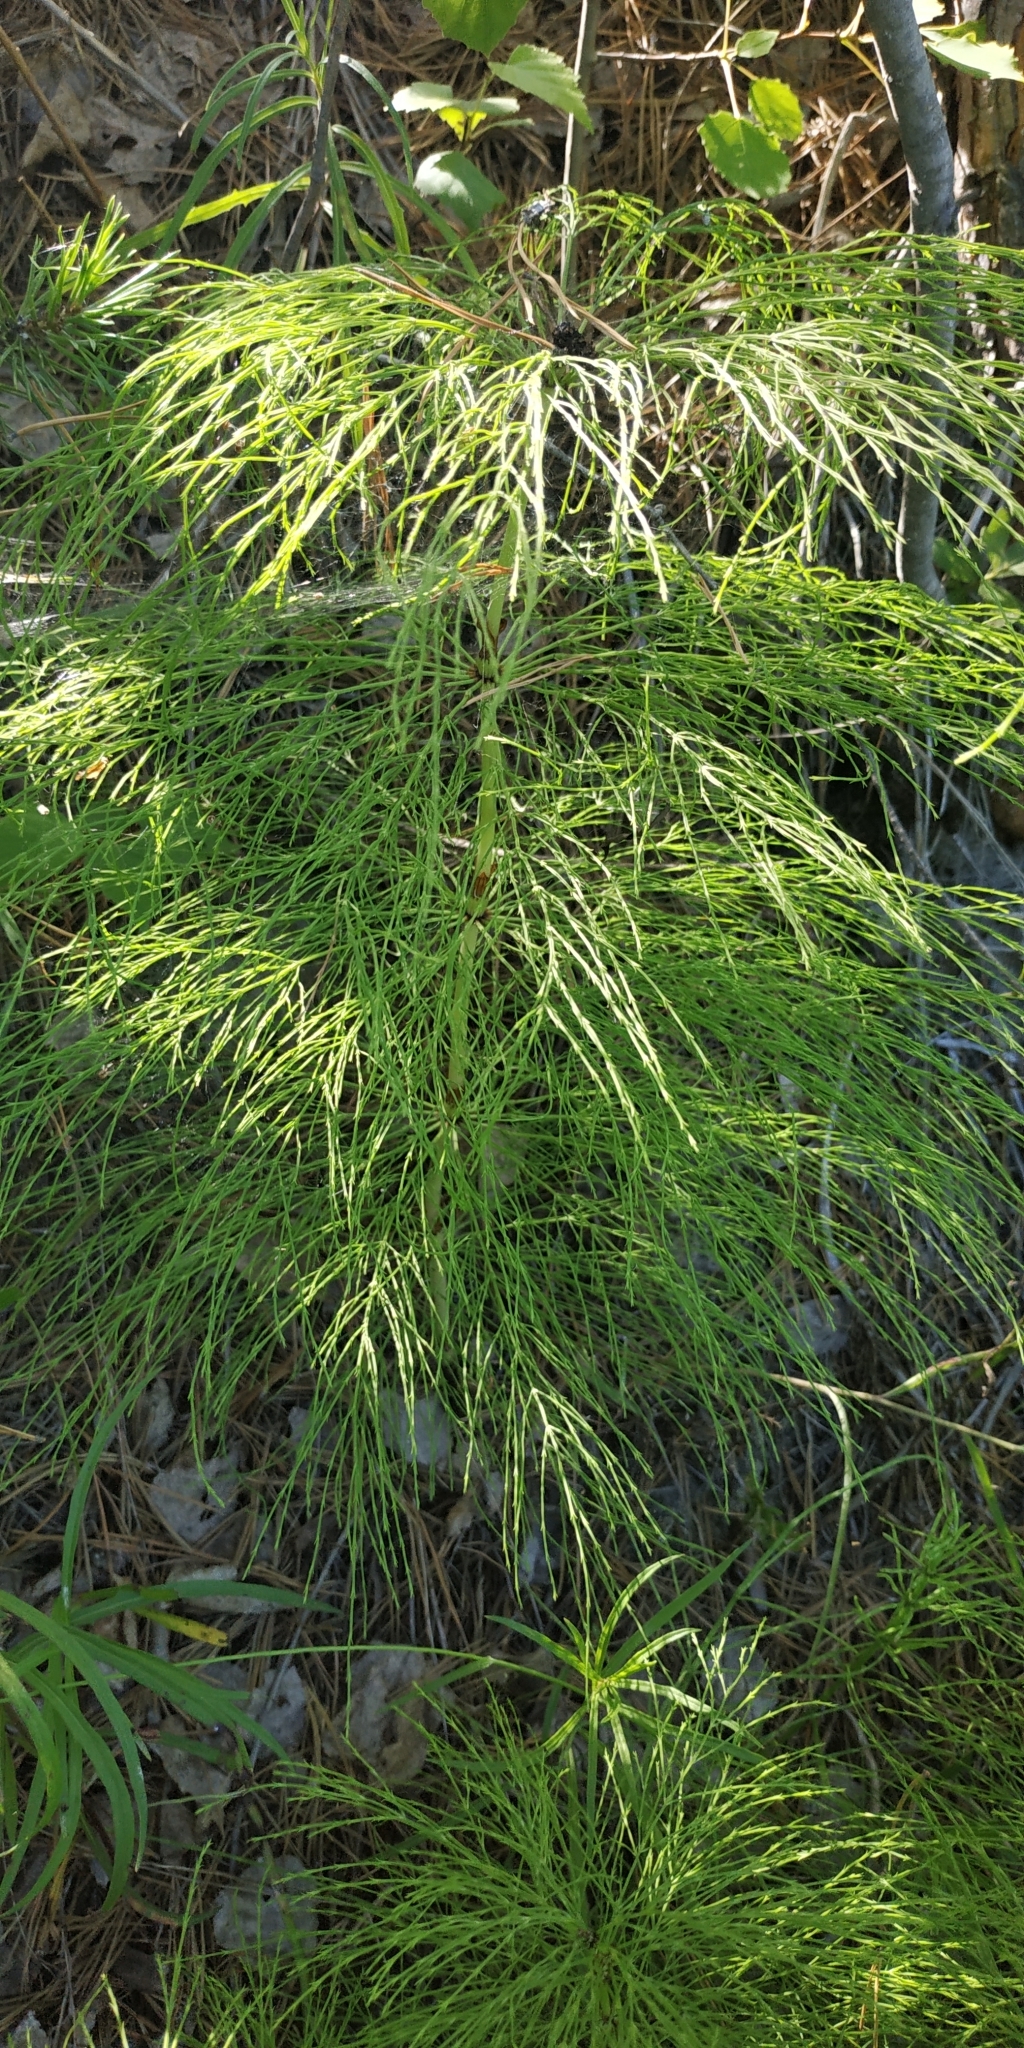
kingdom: Plantae
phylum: Tracheophyta
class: Polypodiopsida
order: Equisetales
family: Equisetaceae
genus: Equisetum
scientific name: Equisetum sylvaticum
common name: Wood horsetail
